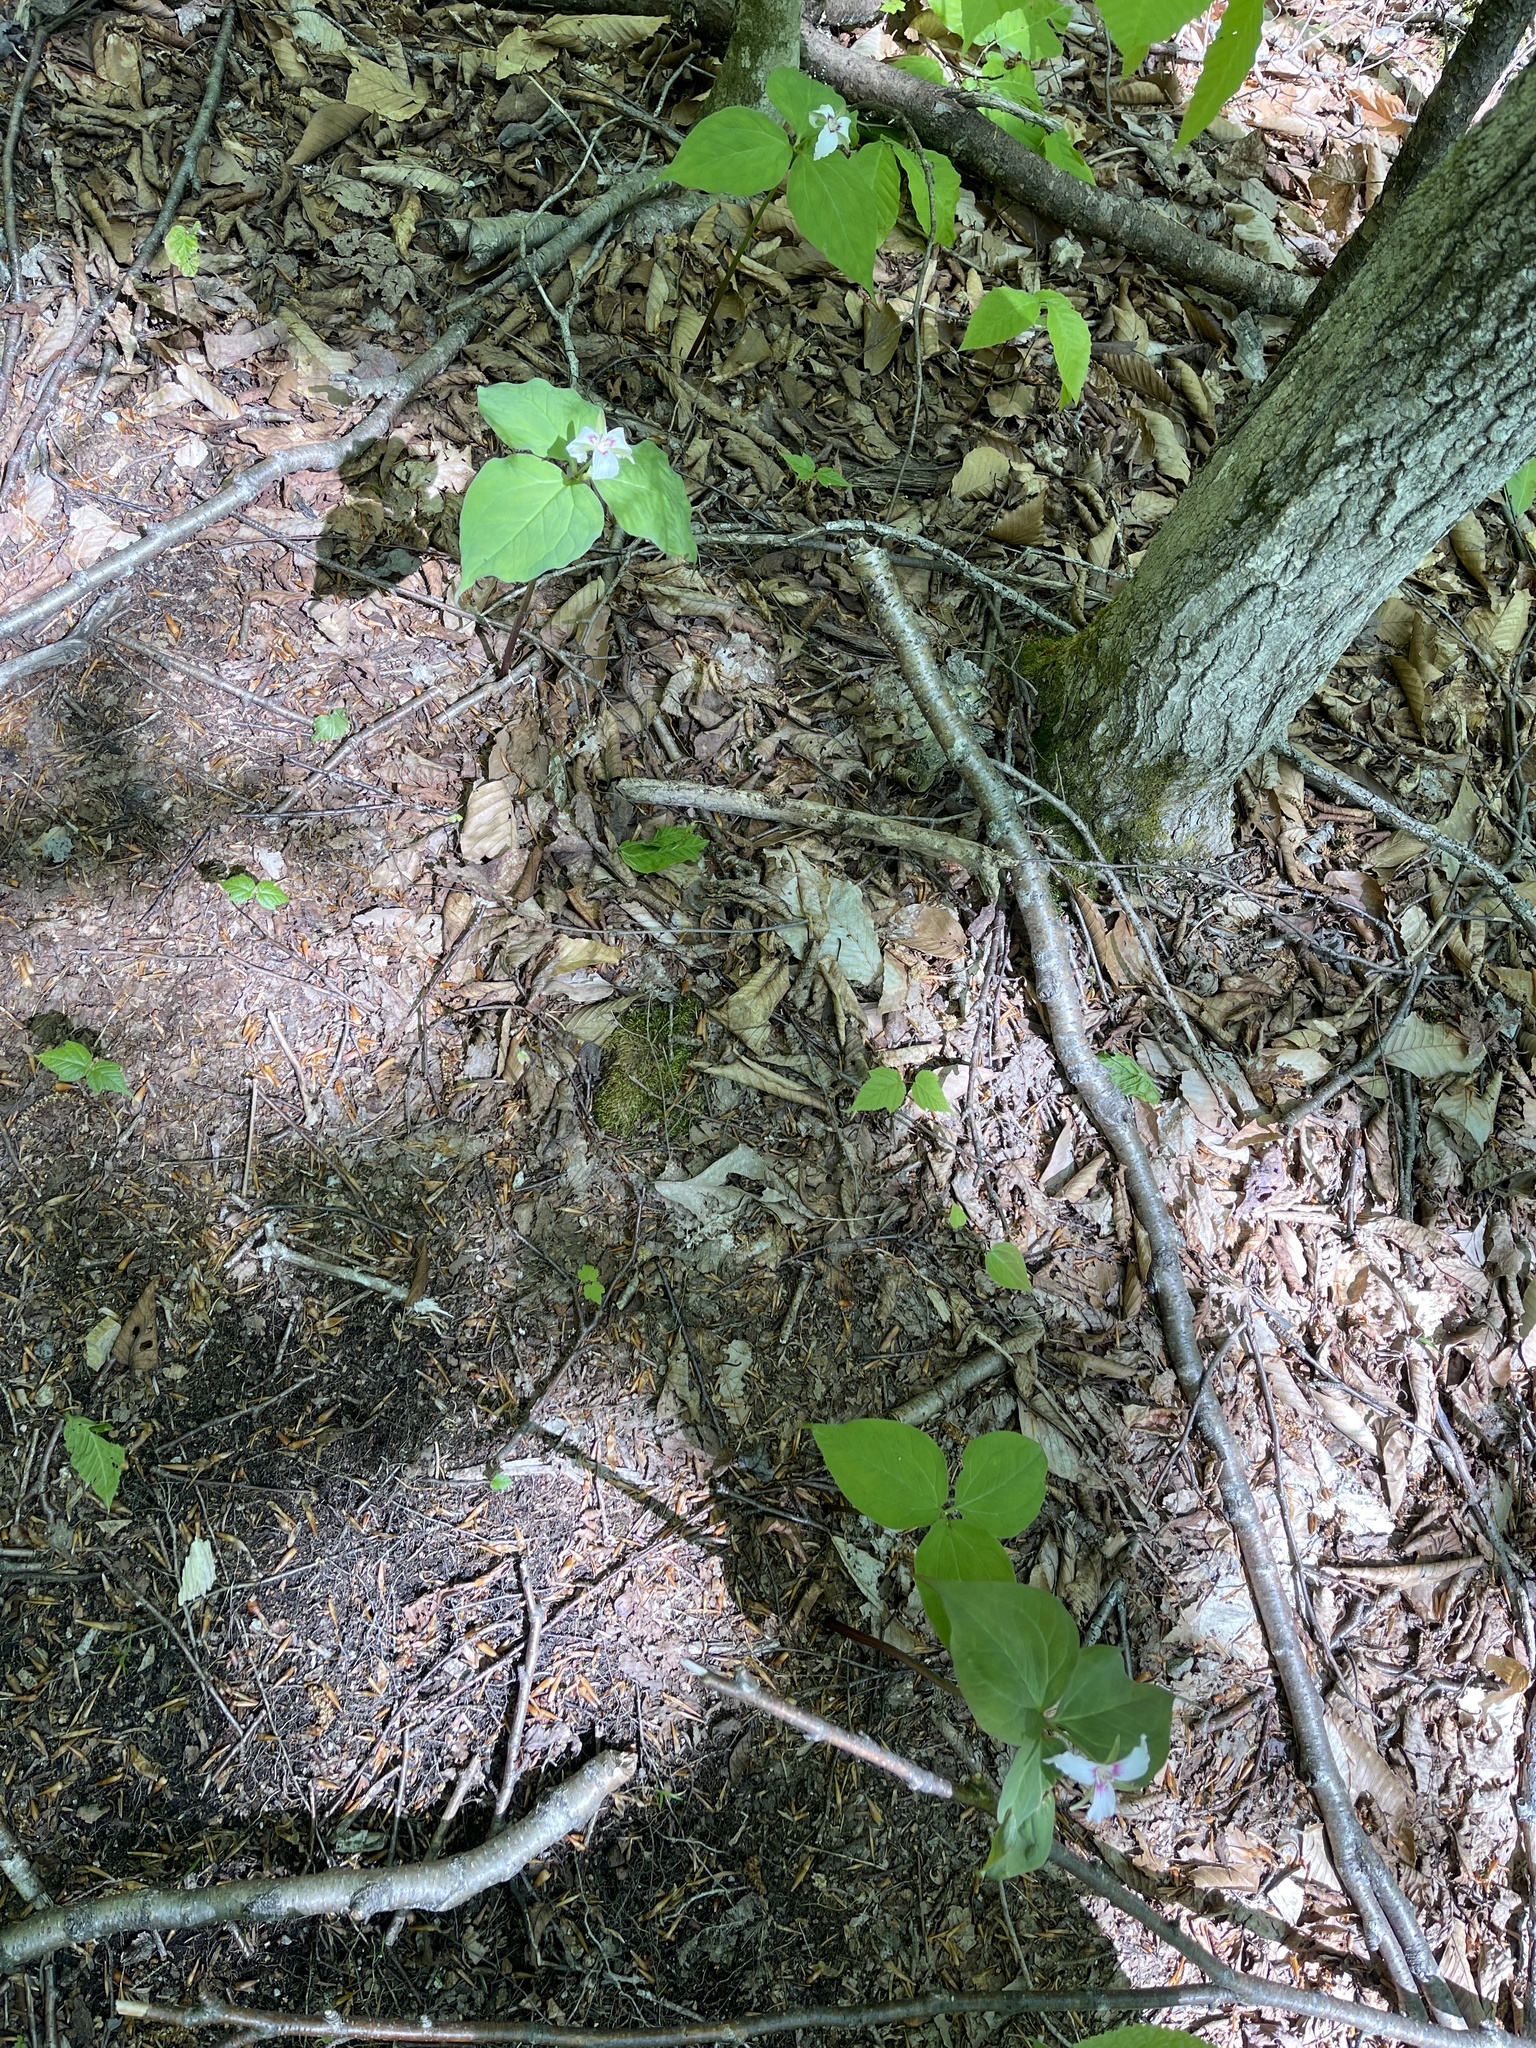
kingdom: Plantae
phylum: Tracheophyta
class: Liliopsida
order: Liliales
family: Melanthiaceae
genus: Trillium
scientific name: Trillium undulatum
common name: Paint trillium
